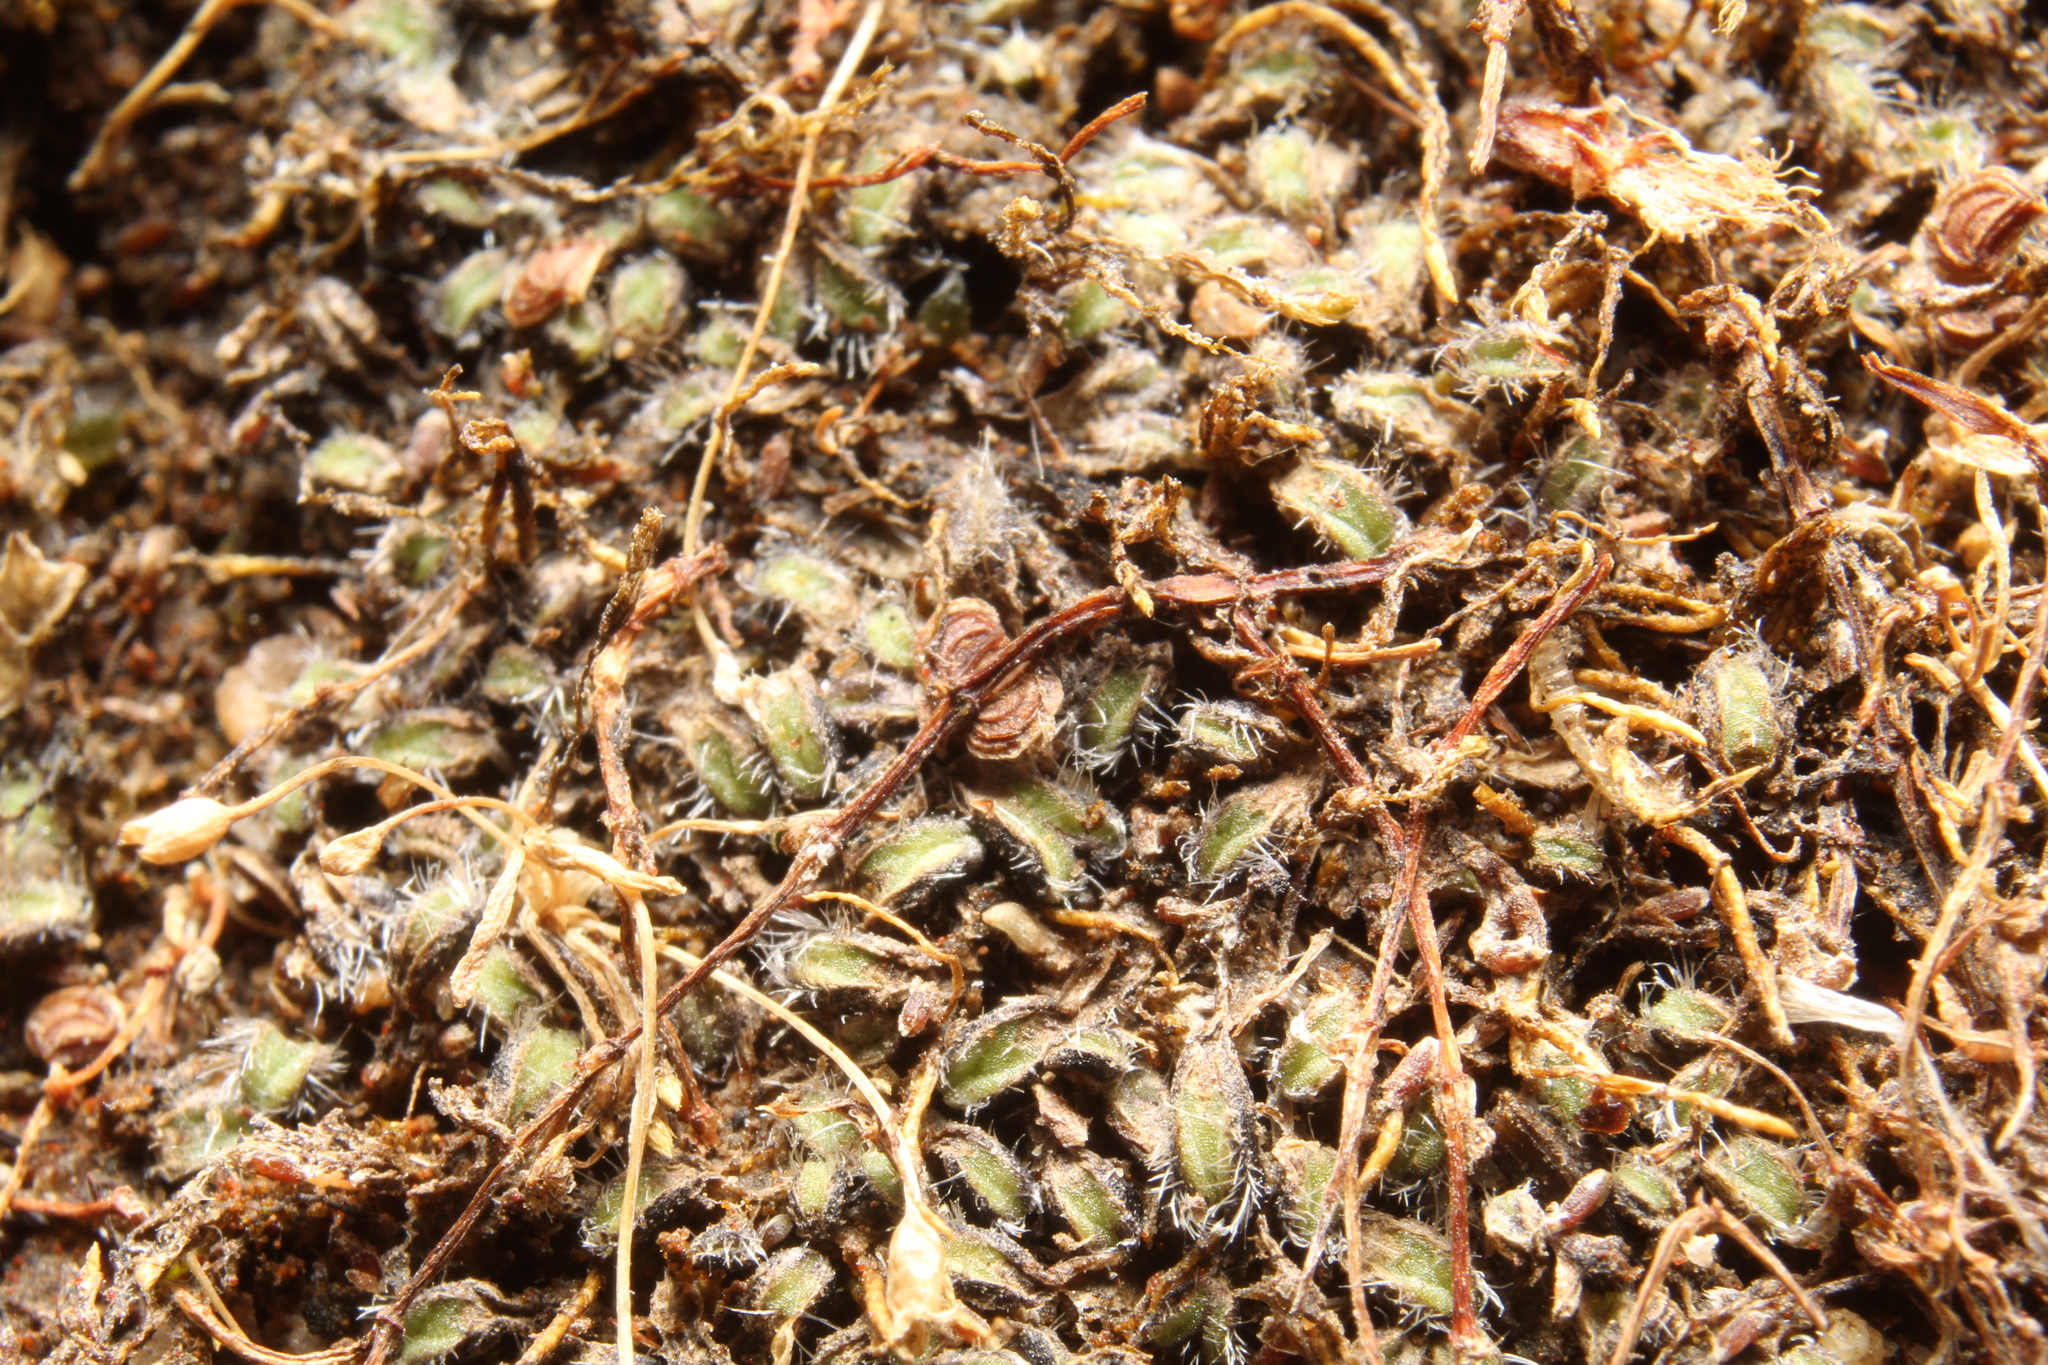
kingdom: Plantae
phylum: Marchantiophyta
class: Marchantiopsida
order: Marchantiales
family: Ricciaceae
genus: Riccia
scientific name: Riccia crinita
